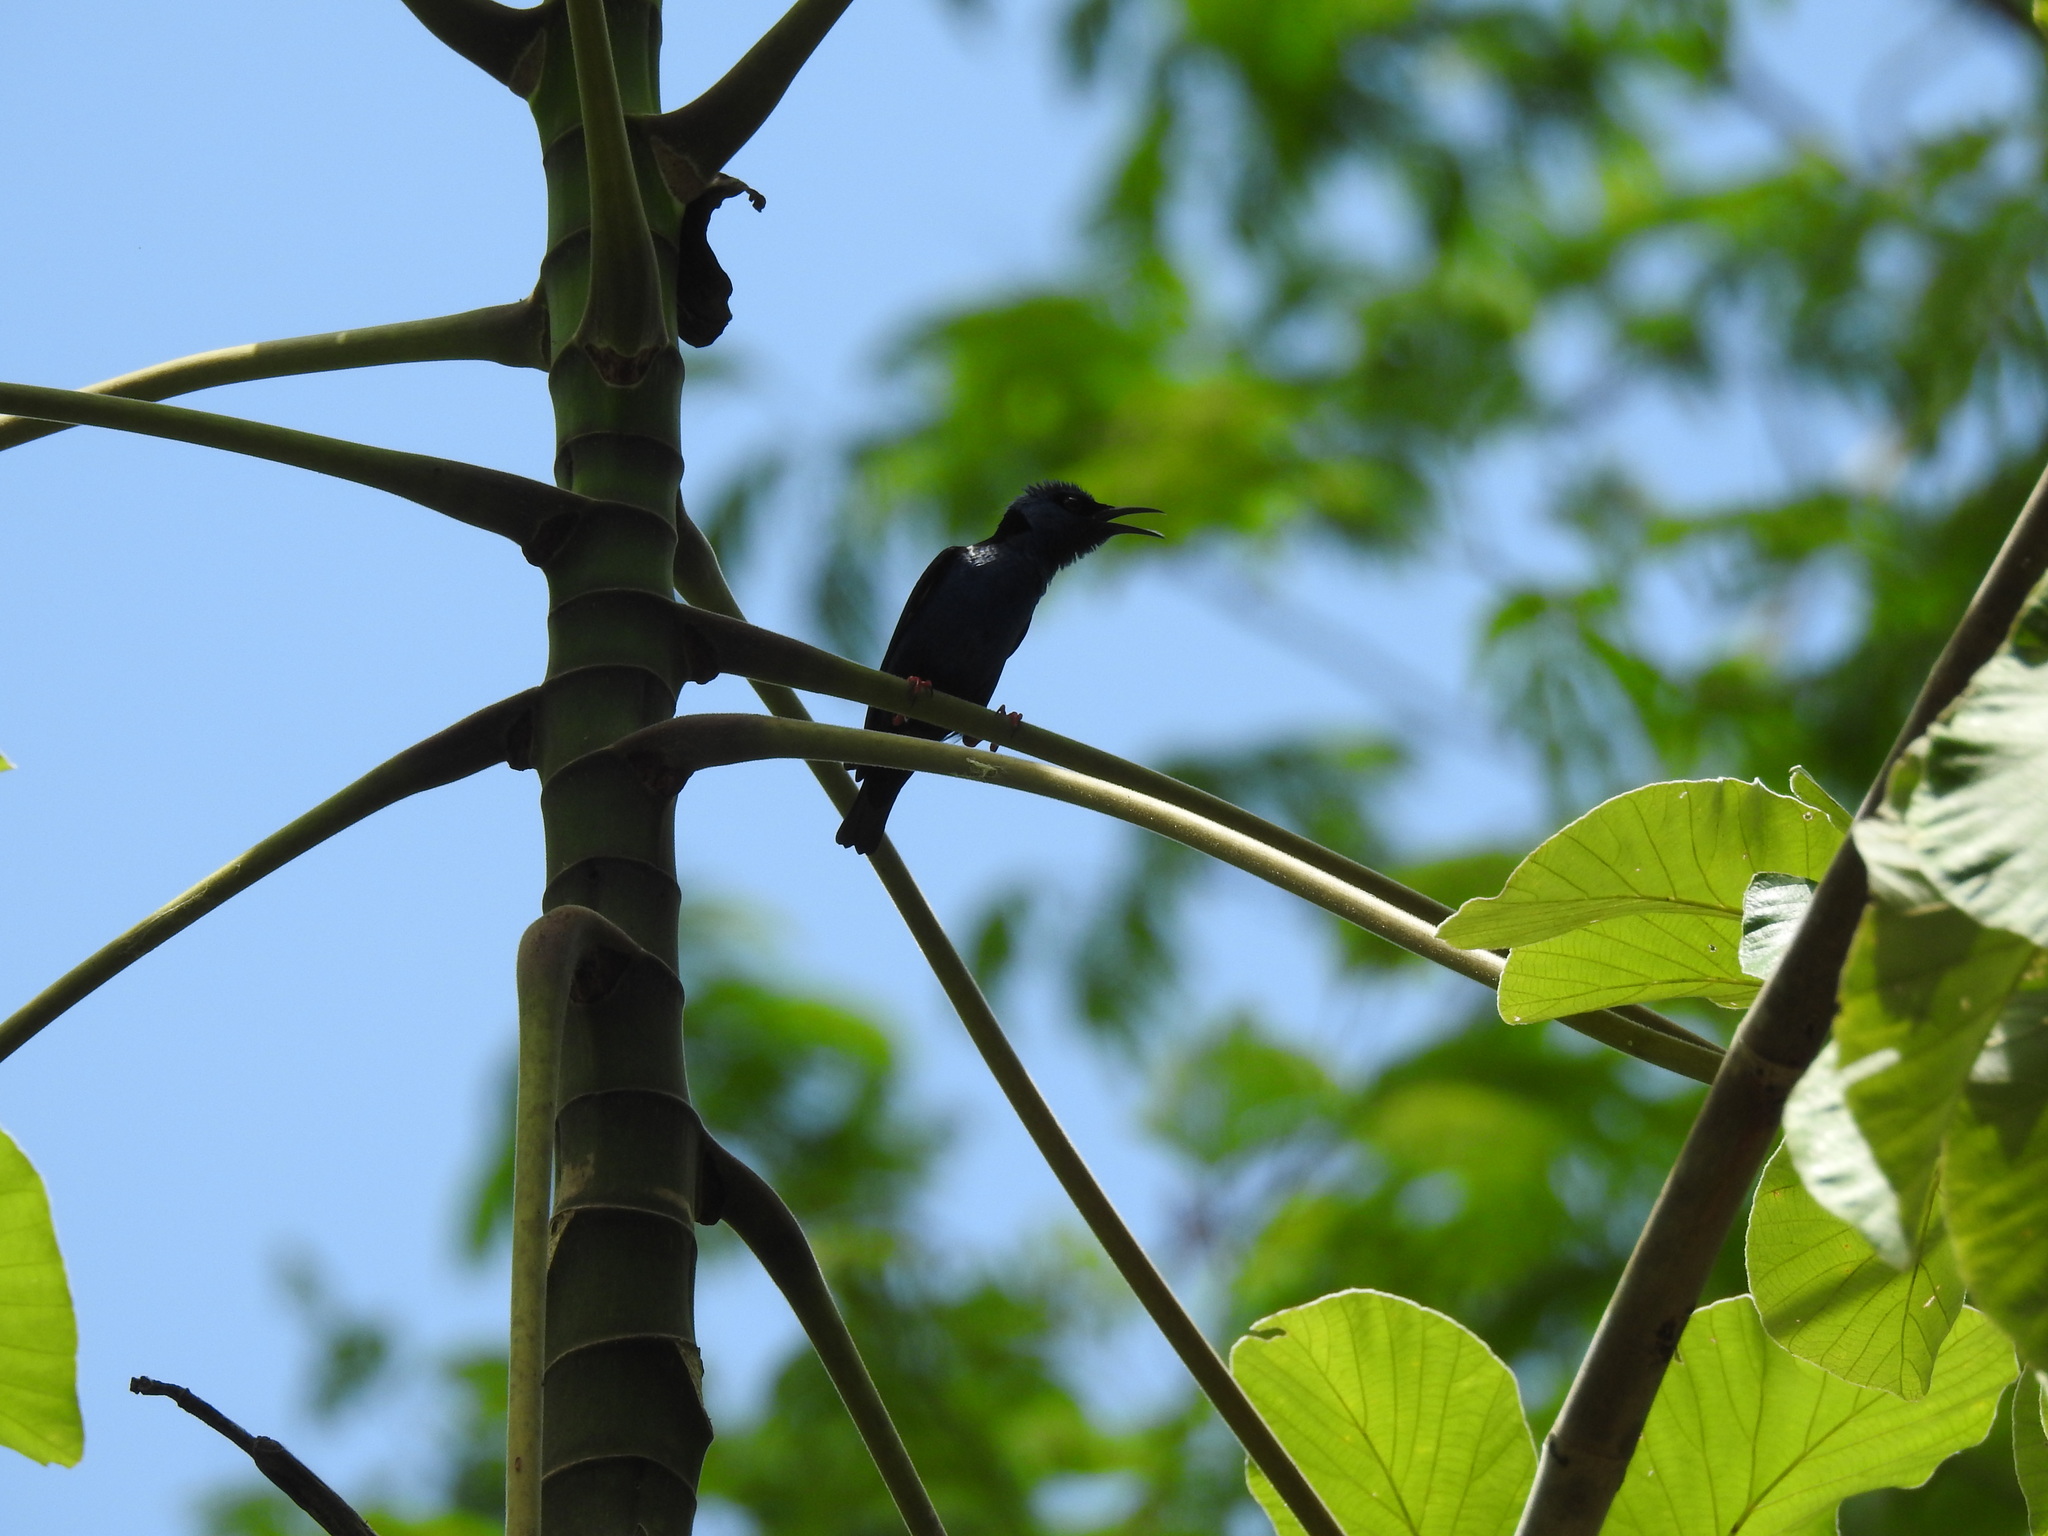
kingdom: Animalia
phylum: Chordata
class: Aves
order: Passeriformes
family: Thraupidae
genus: Cyanerpes
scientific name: Cyanerpes cyaneus
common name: Red-legged honeycreeper
